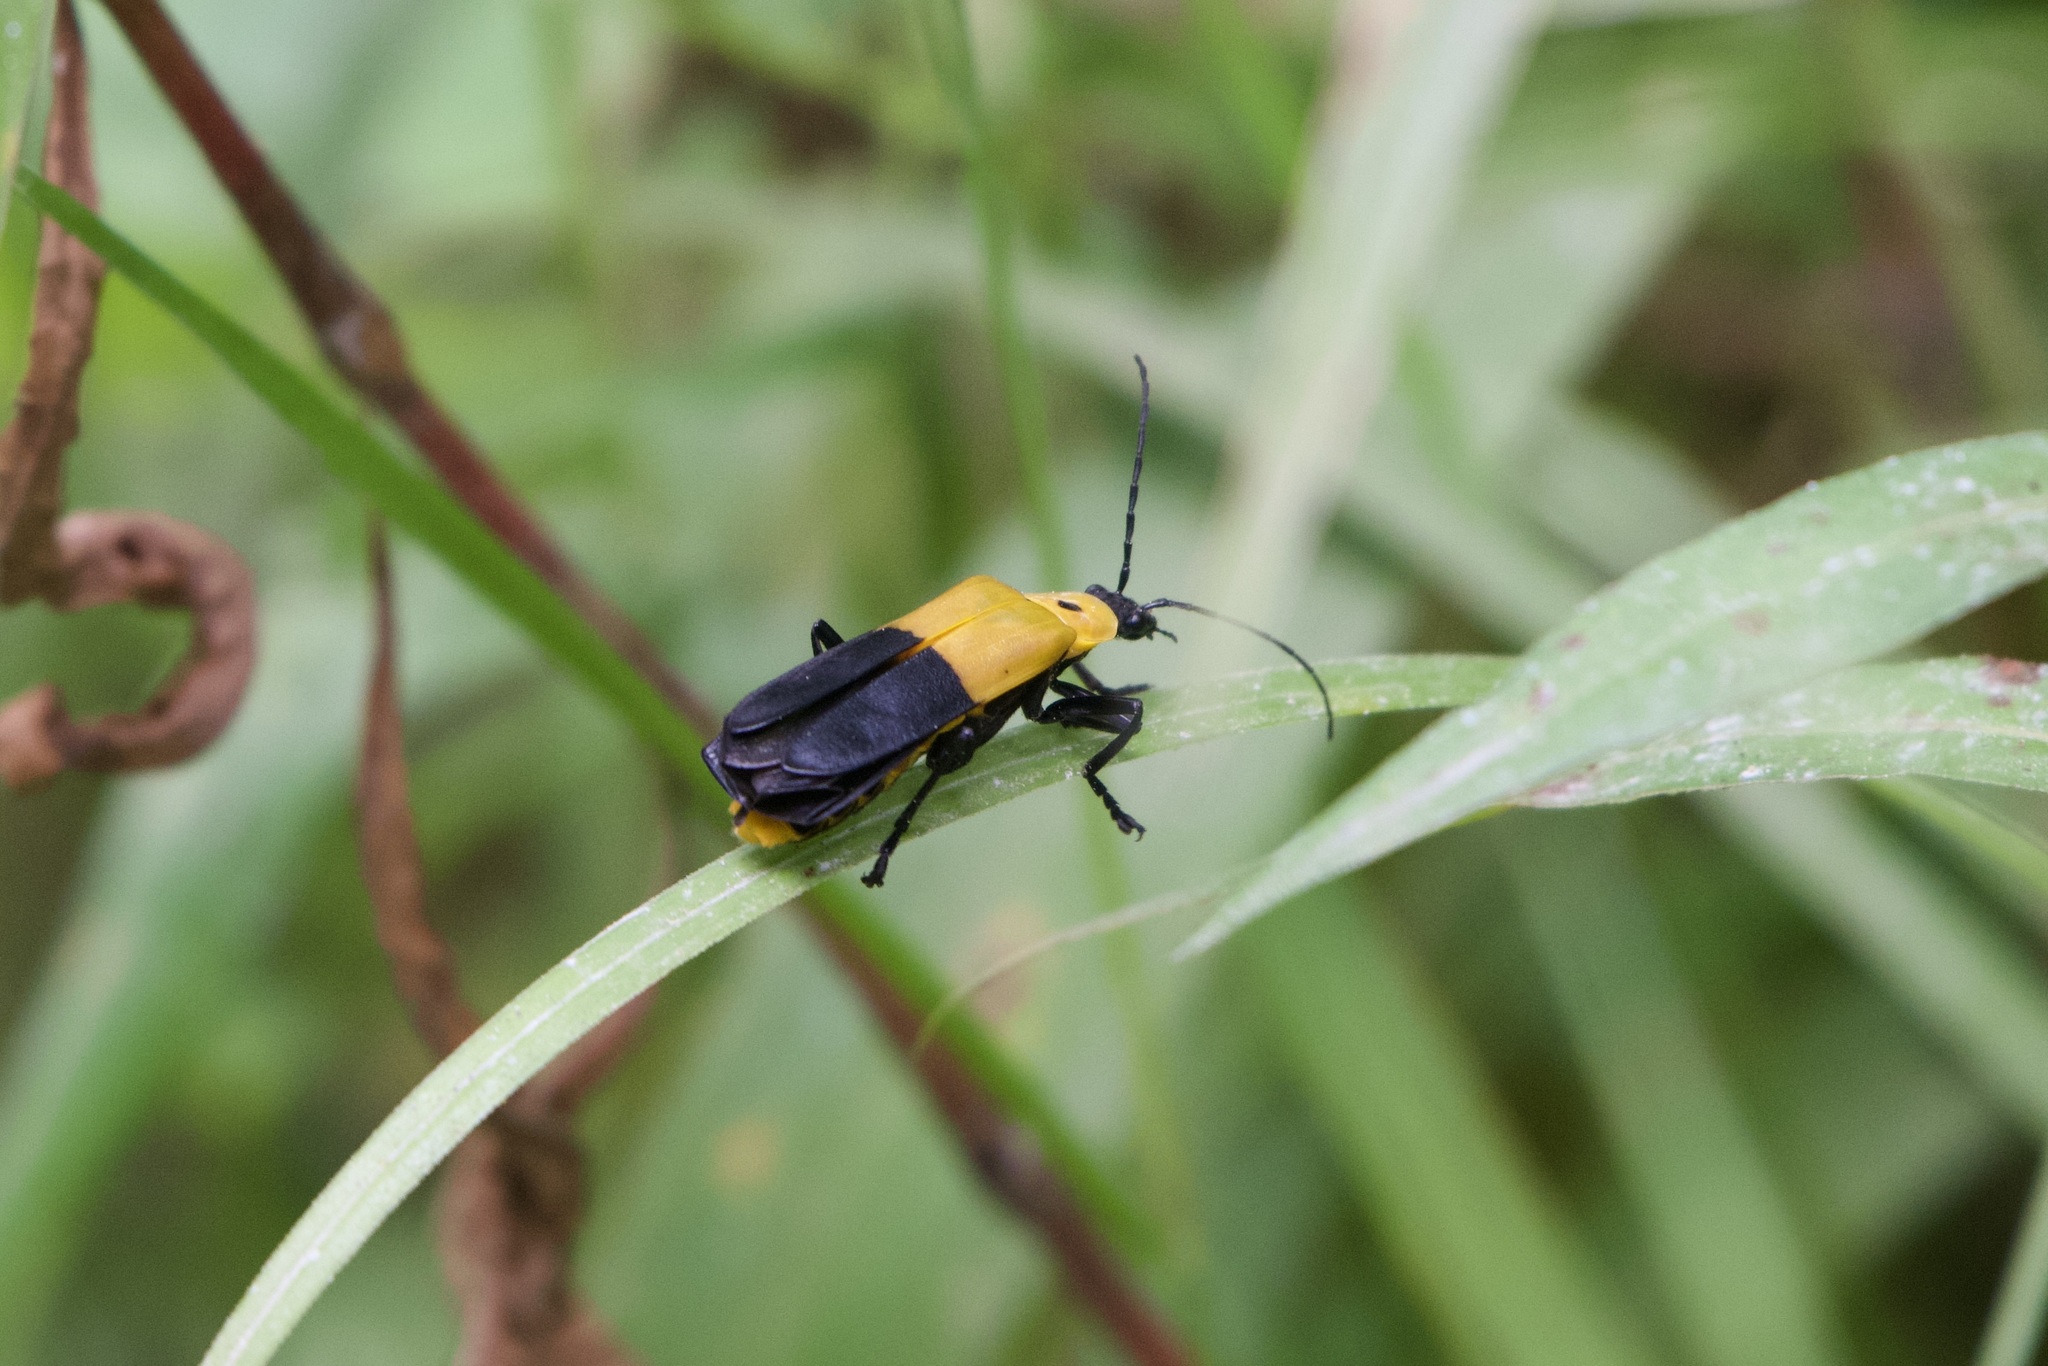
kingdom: Animalia
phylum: Arthropoda
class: Insecta
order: Coleoptera
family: Cantharidae
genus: Chauliognathus
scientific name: Chauliognathus
